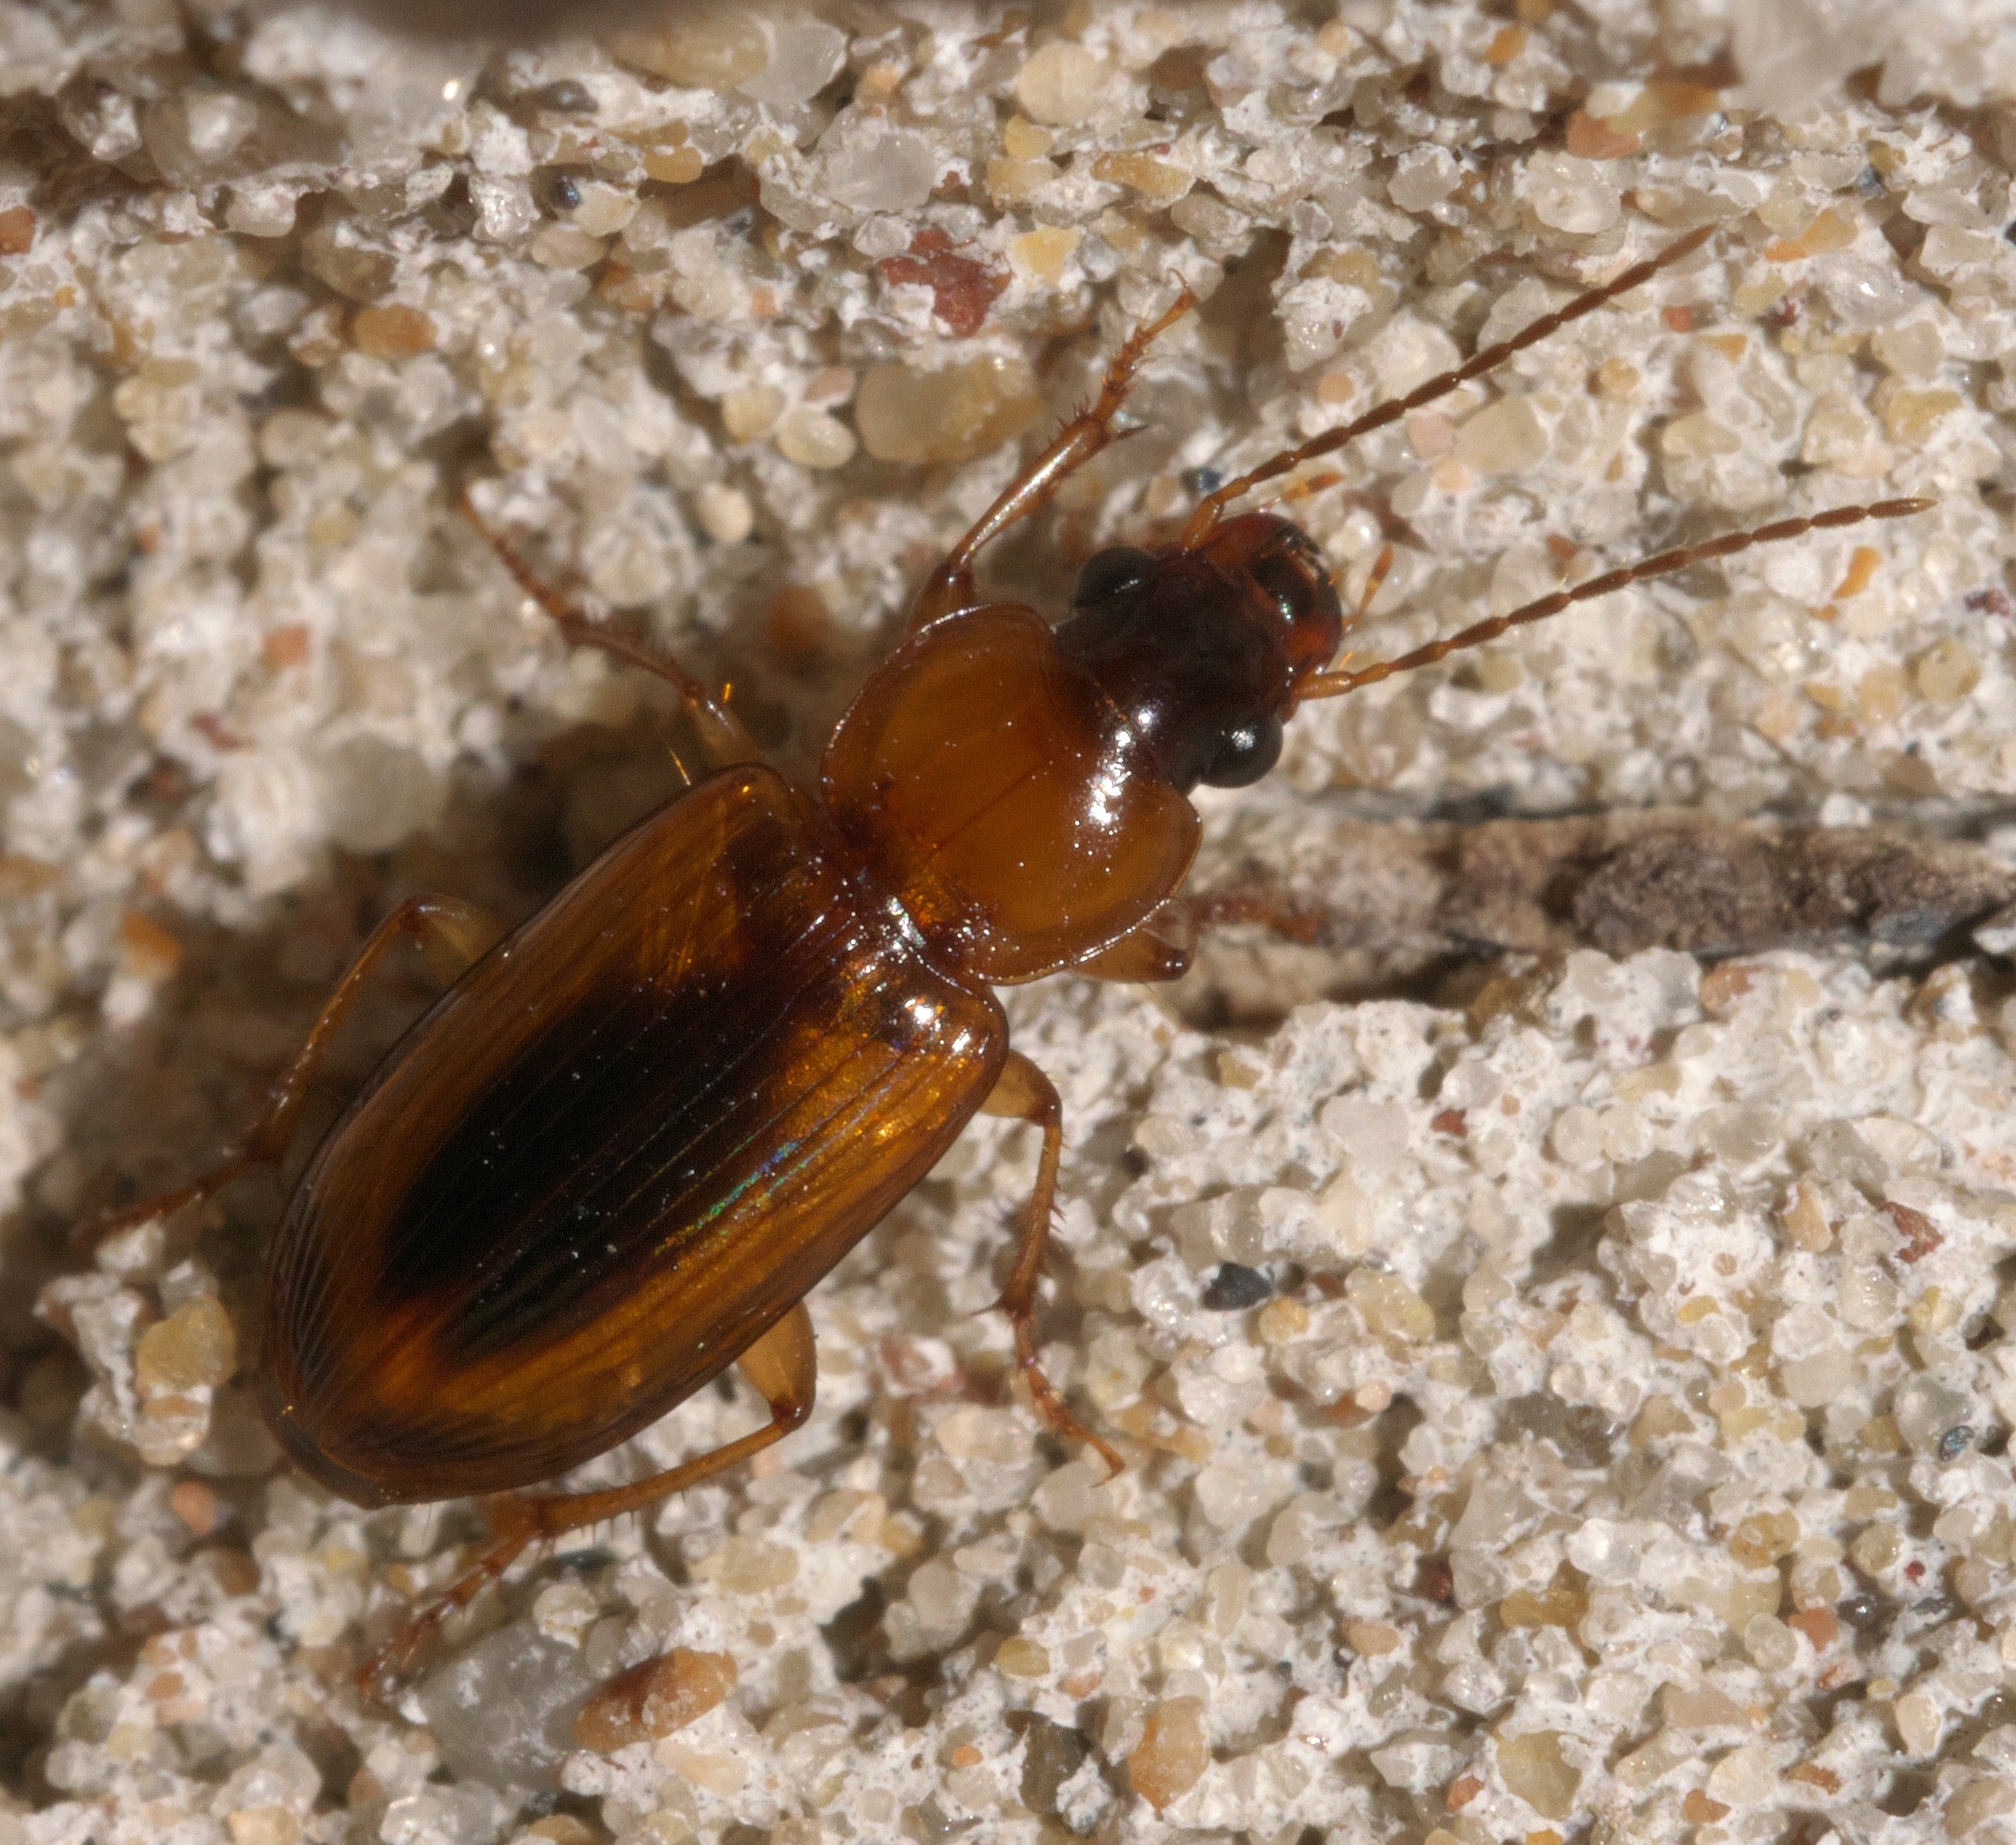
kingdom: Animalia
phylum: Arthropoda
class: Insecta
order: Coleoptera
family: Carabidae
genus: Stenolophus
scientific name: Stenolophus dissimilis
